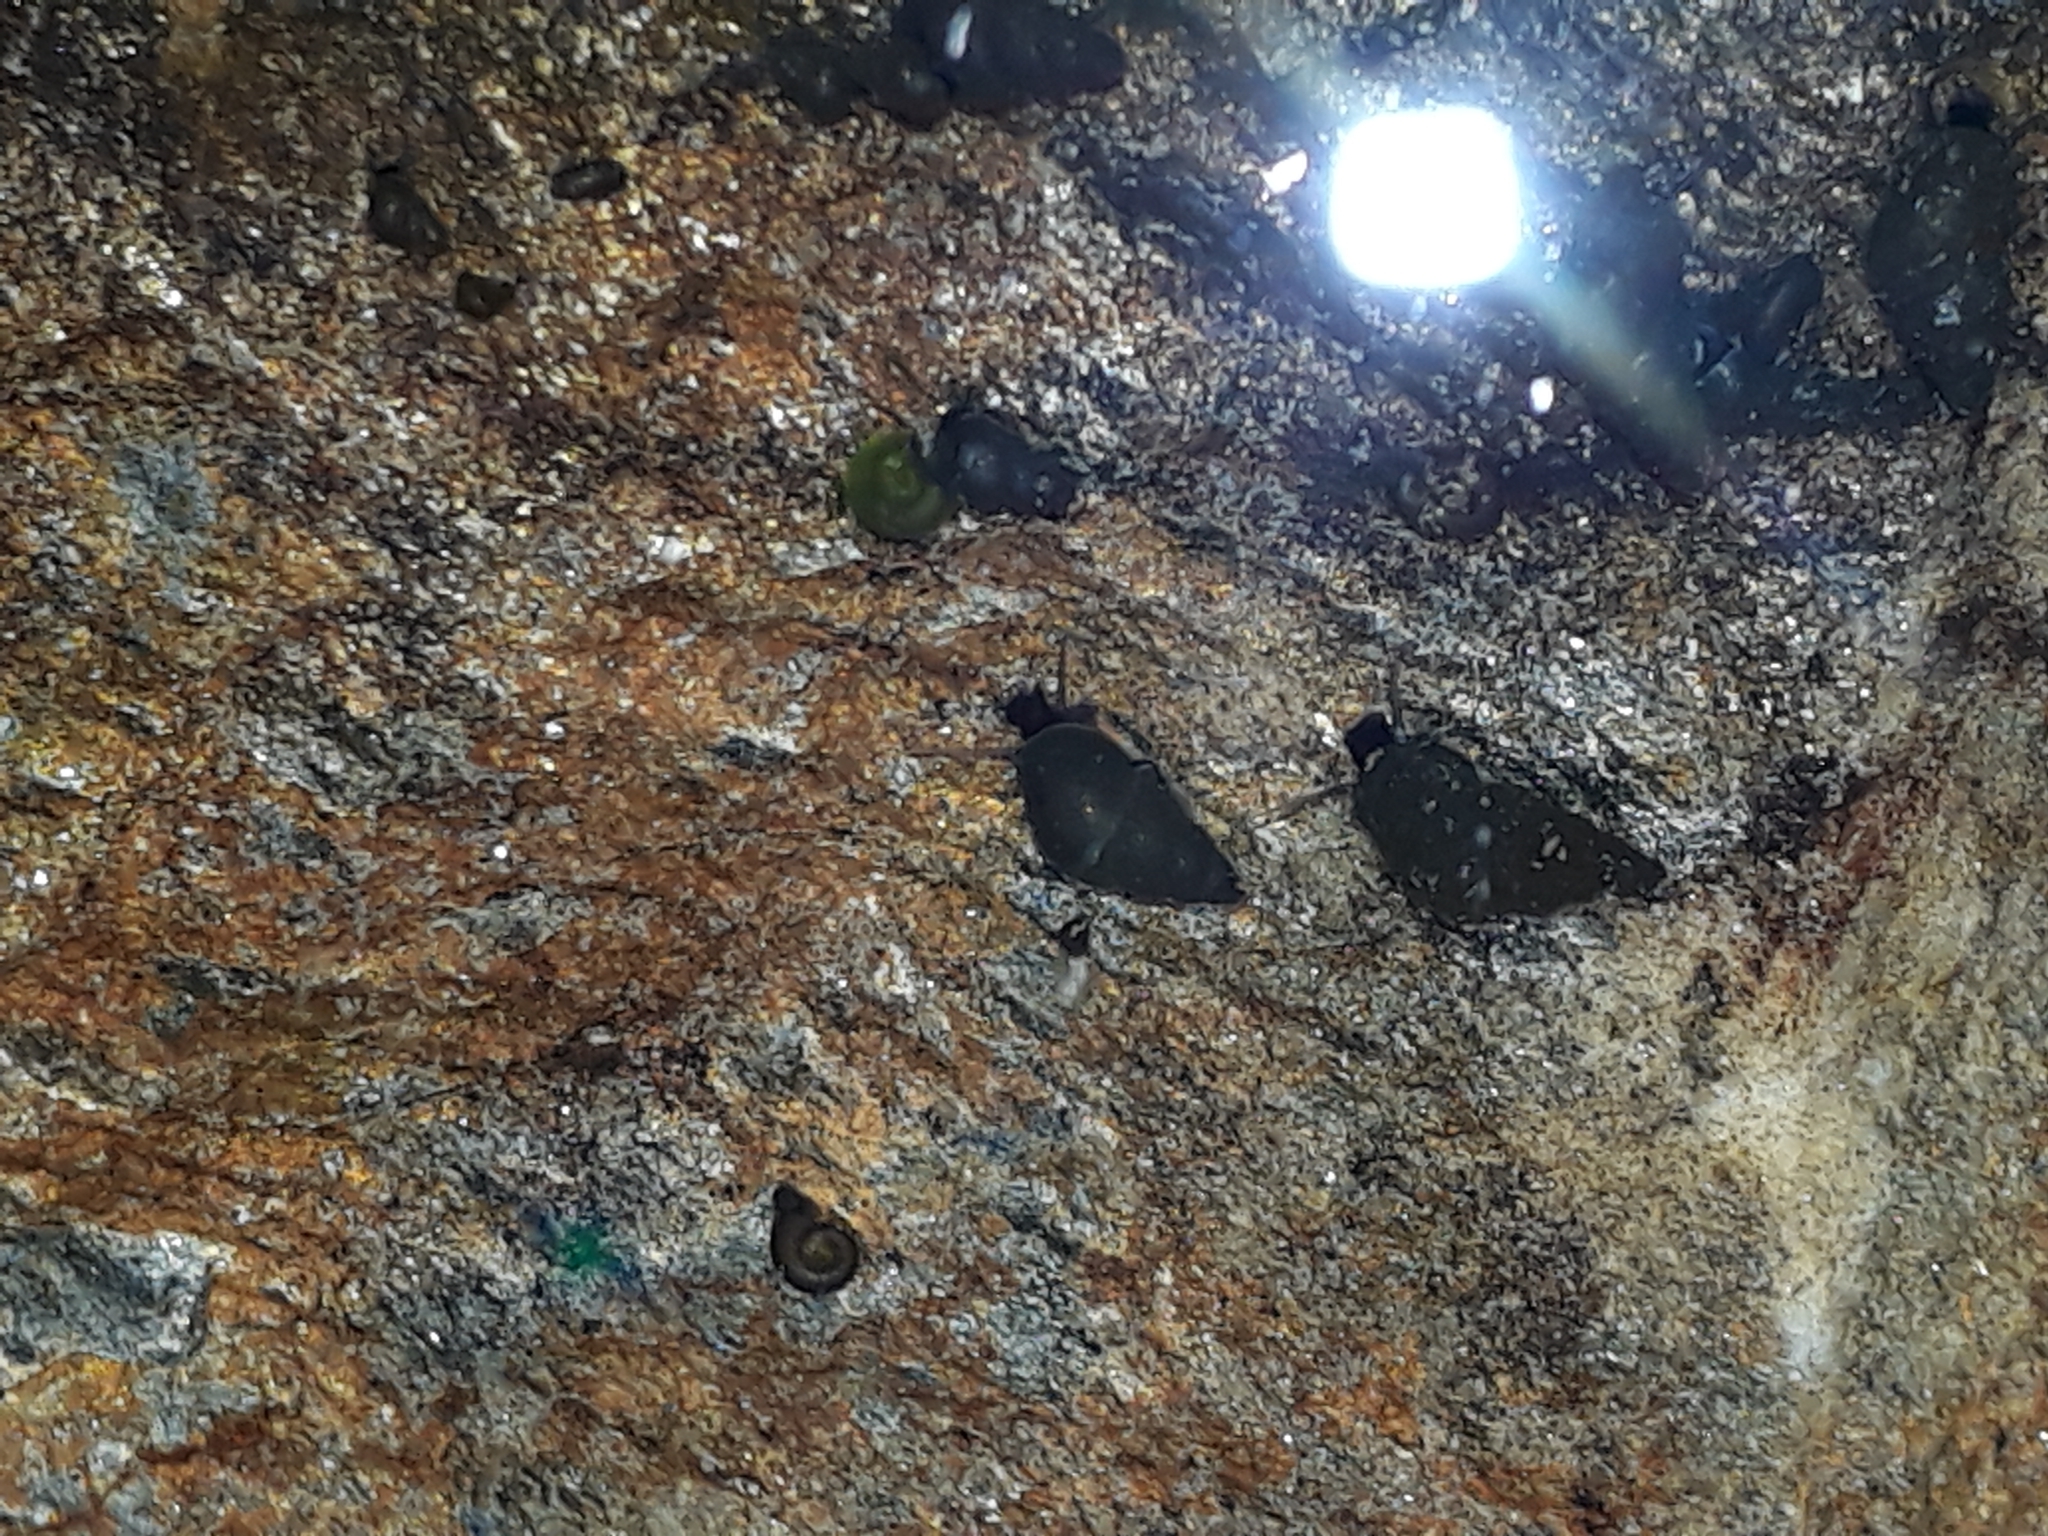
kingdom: Animalia
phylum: Mollusca
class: Gastropoda
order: Littorinimorpha
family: Tateidae
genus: Potamopyrgus
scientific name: Potamopyrgus antipodarum
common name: Jenkins' spire snail
